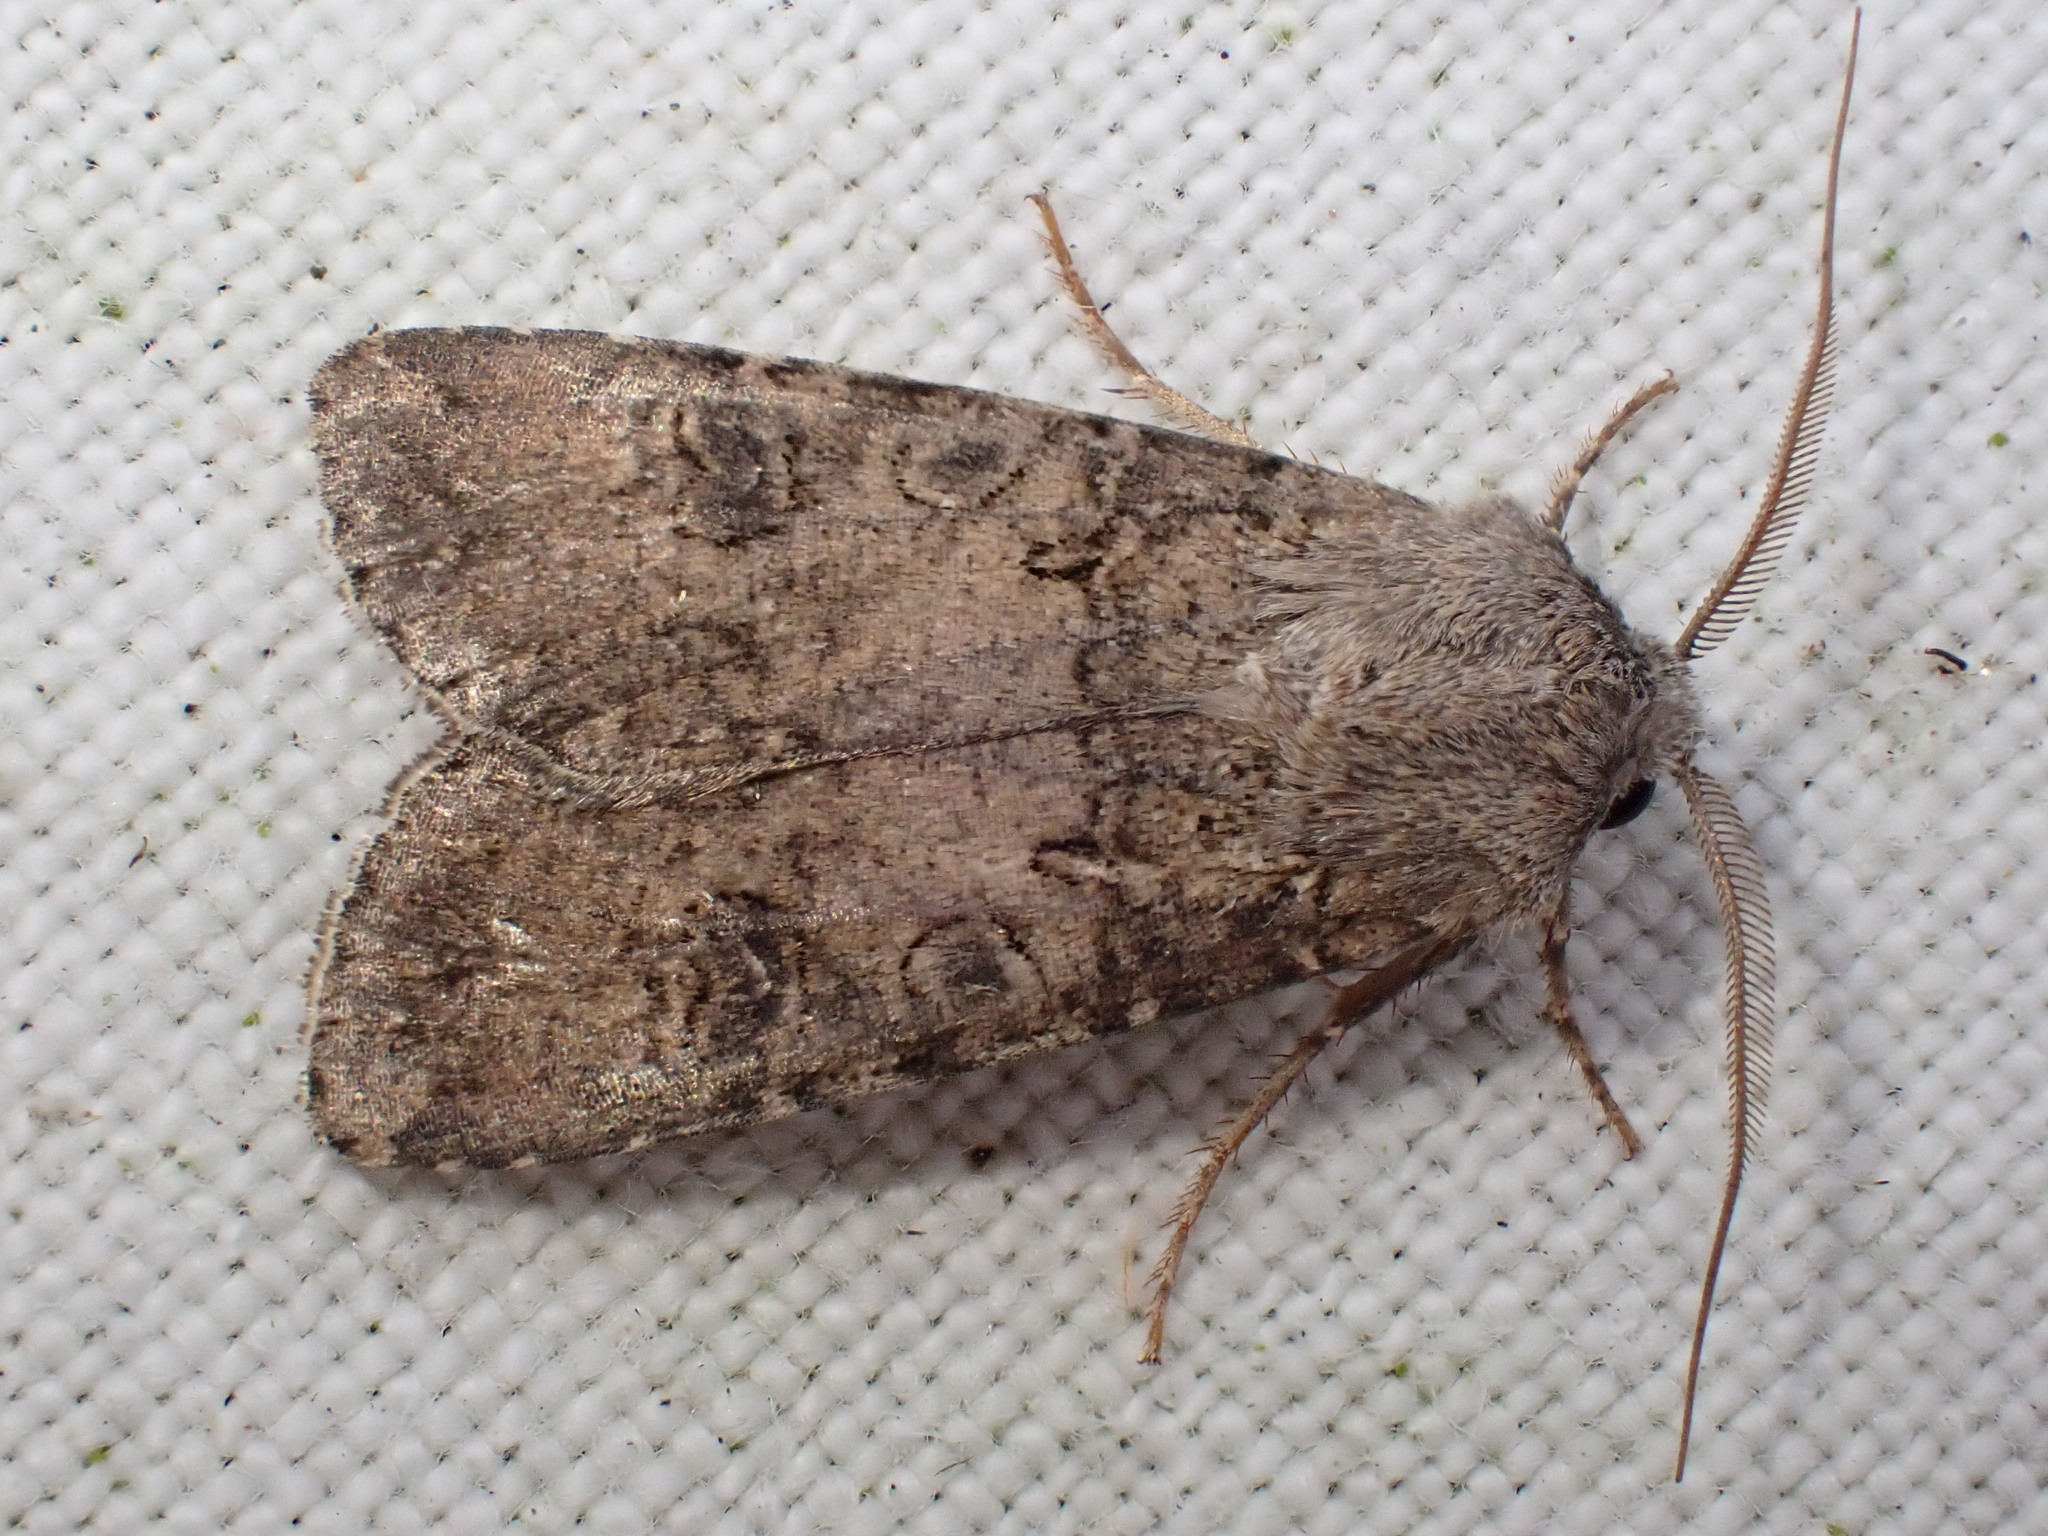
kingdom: Animalia
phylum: Arthropoda
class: Insecta
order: Lepidoptera
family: Noctuidae
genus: Agrotis
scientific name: Agrotis segetum
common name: Turnip moth
